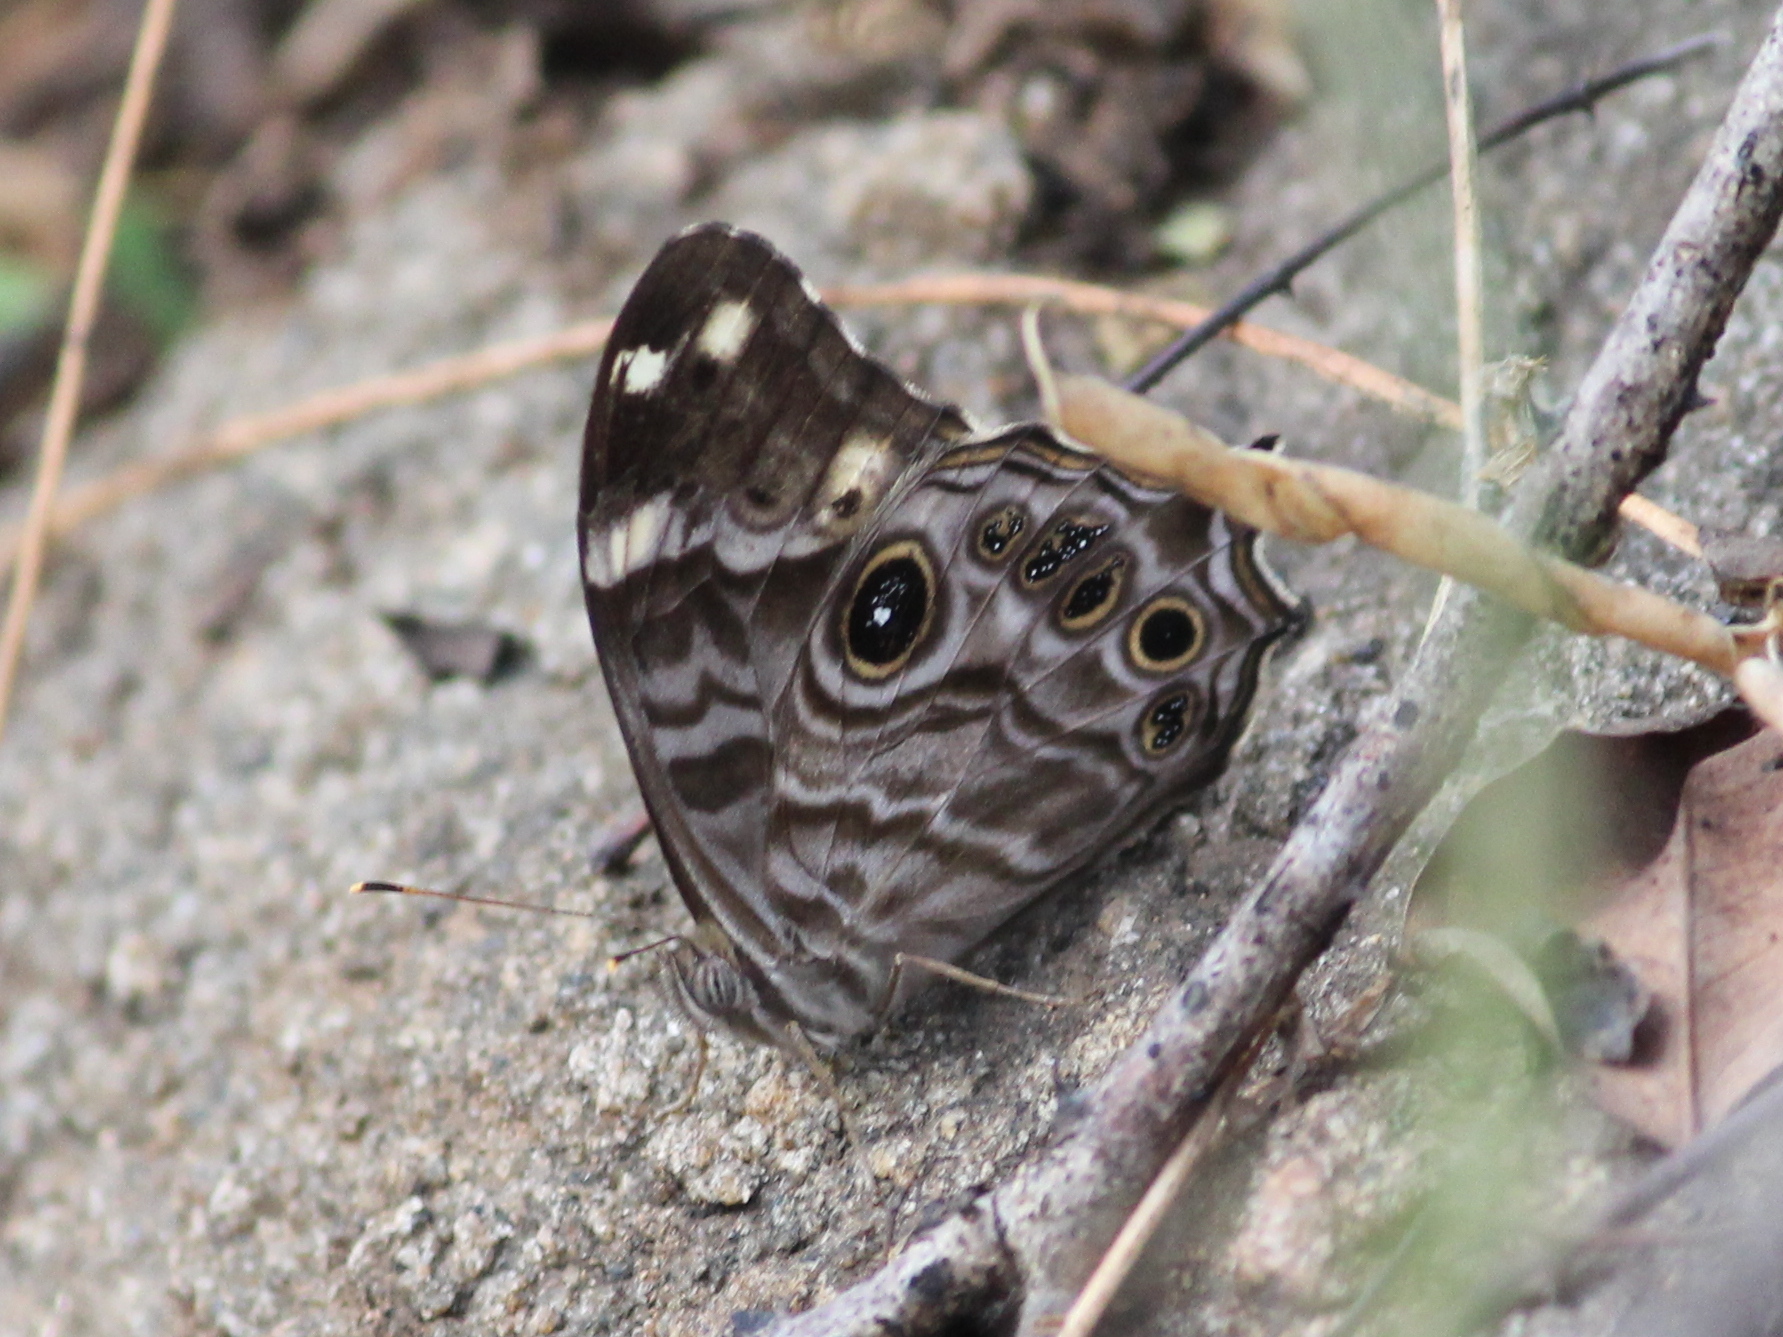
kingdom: Animalia
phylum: Arthropoda
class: Insecta
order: Lepidoptera
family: Nymphalidae
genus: Lethe
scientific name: Lethe rohria
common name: Common treebrown
